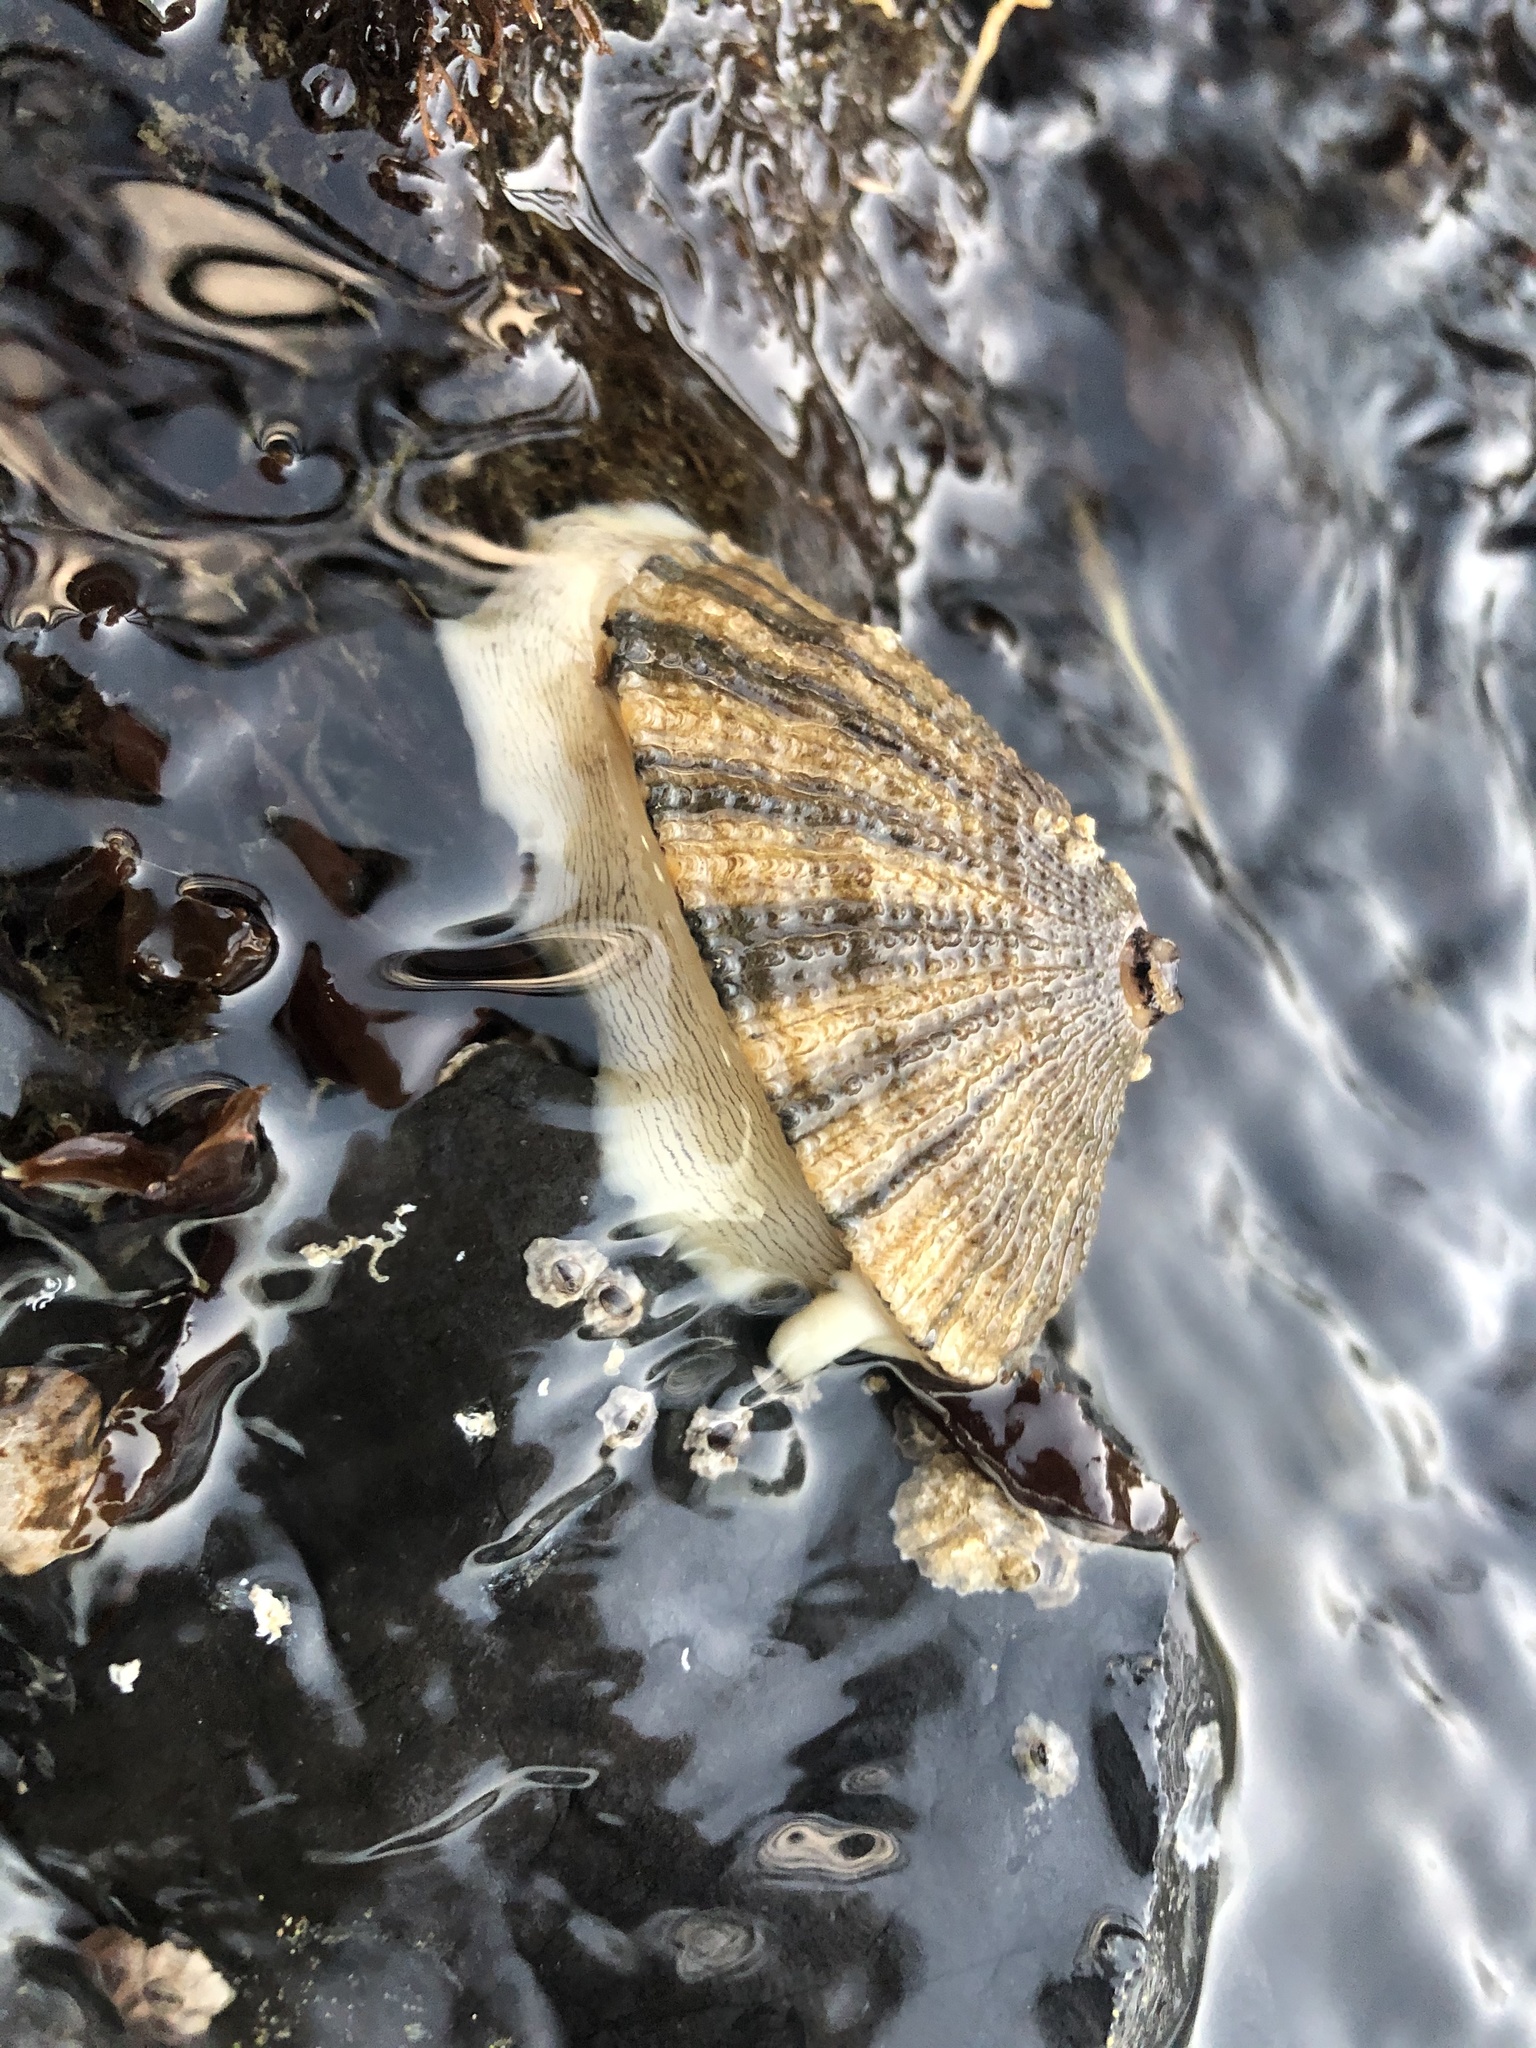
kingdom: Animalia
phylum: Mollusca
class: Gastropoda
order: Lepetellida
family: Fissurellidae
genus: Diodora
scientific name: Diodora aspera
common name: Rough keyhole limpet
